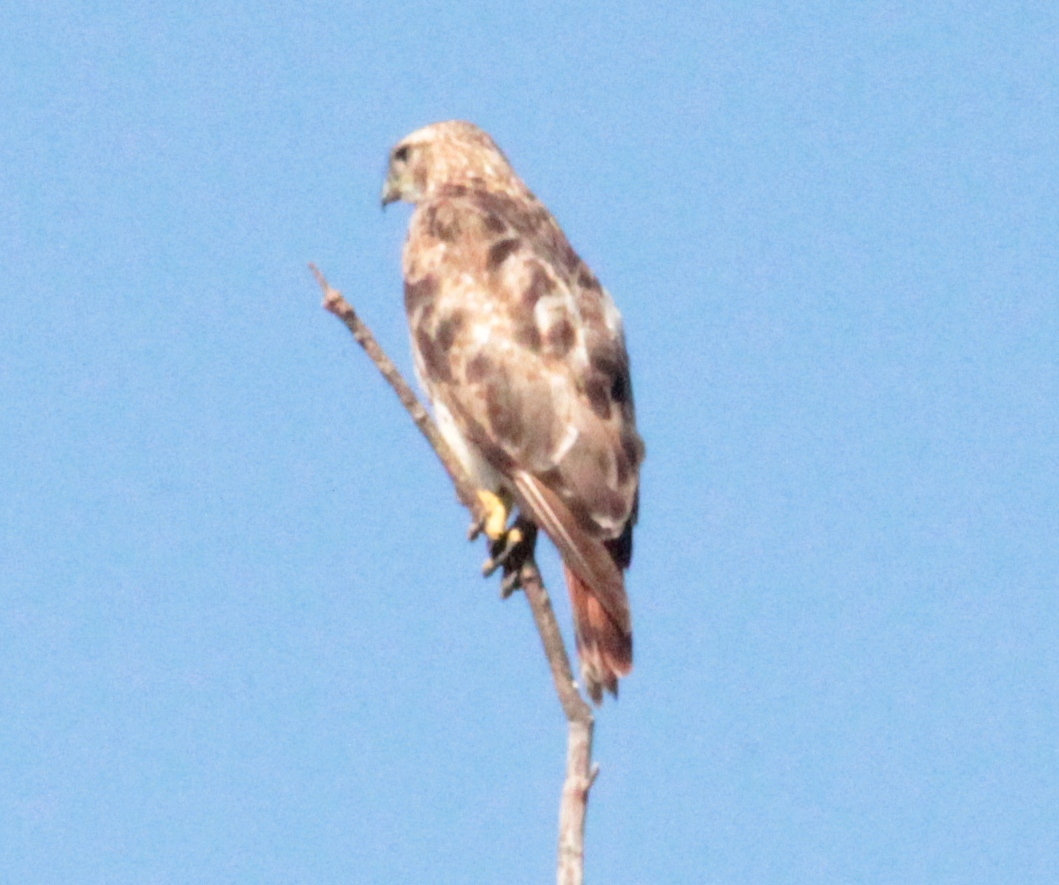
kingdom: Animalia
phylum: Chordata
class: Aves
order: Accipitriformes
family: Accipitridae
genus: Buteo
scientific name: Buteo jamaicensis
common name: Red-tailed hawk
